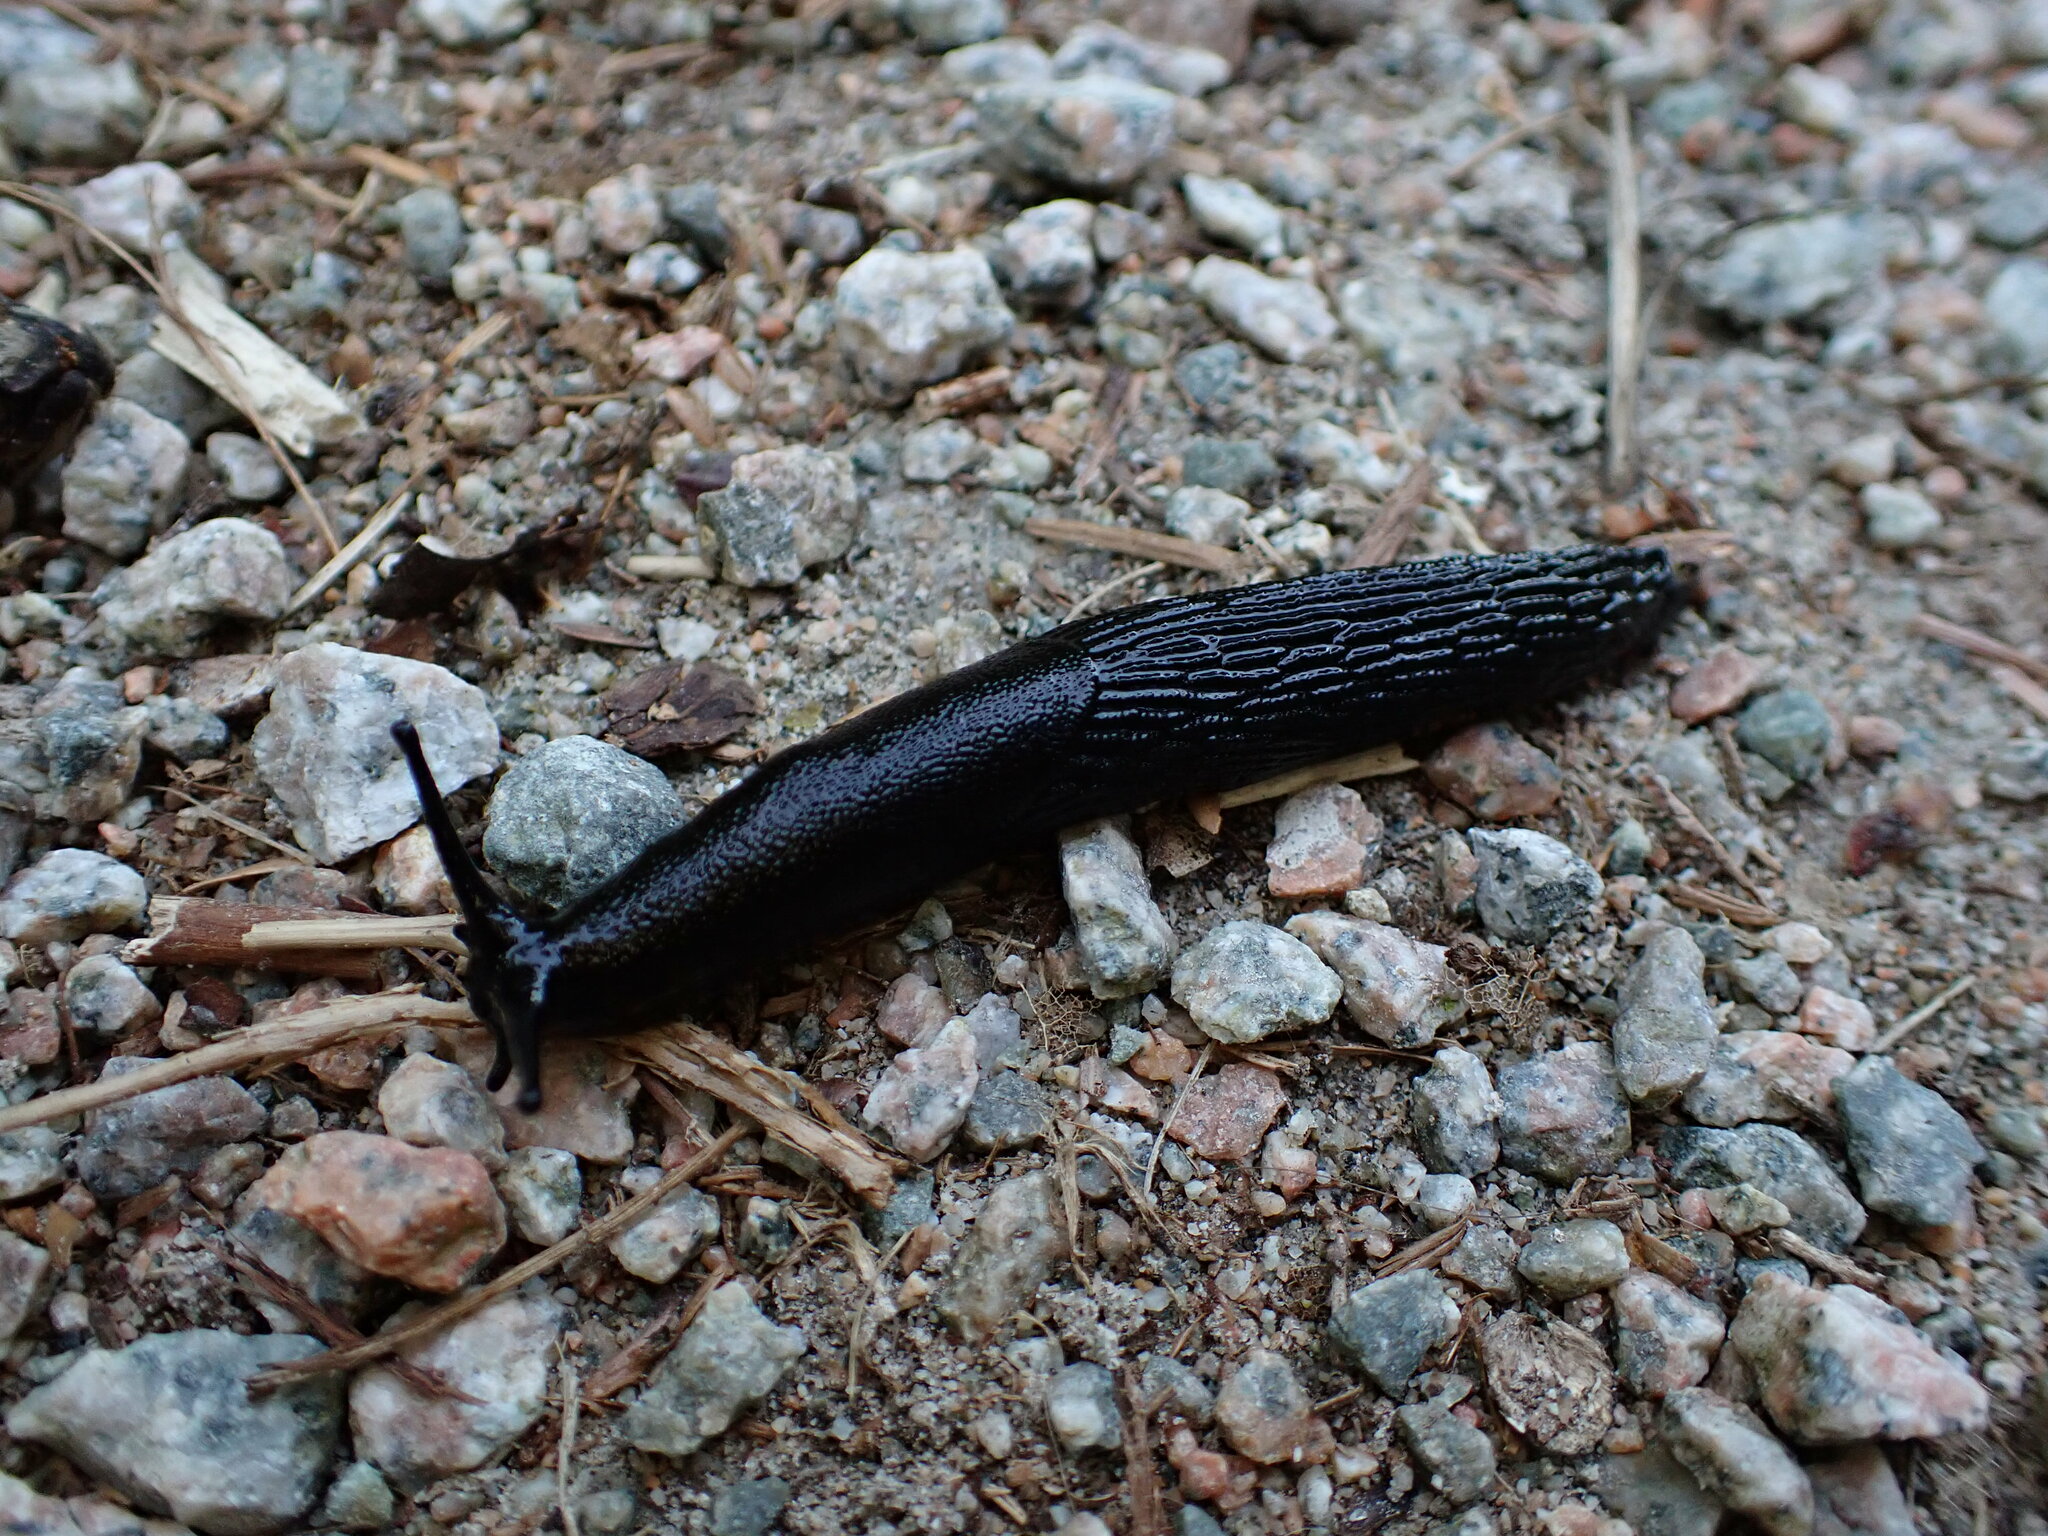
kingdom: Animalia
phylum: Mollusca
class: Gastropoda
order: Stylommatophora
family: Arionidae
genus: Arion
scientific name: Arion
